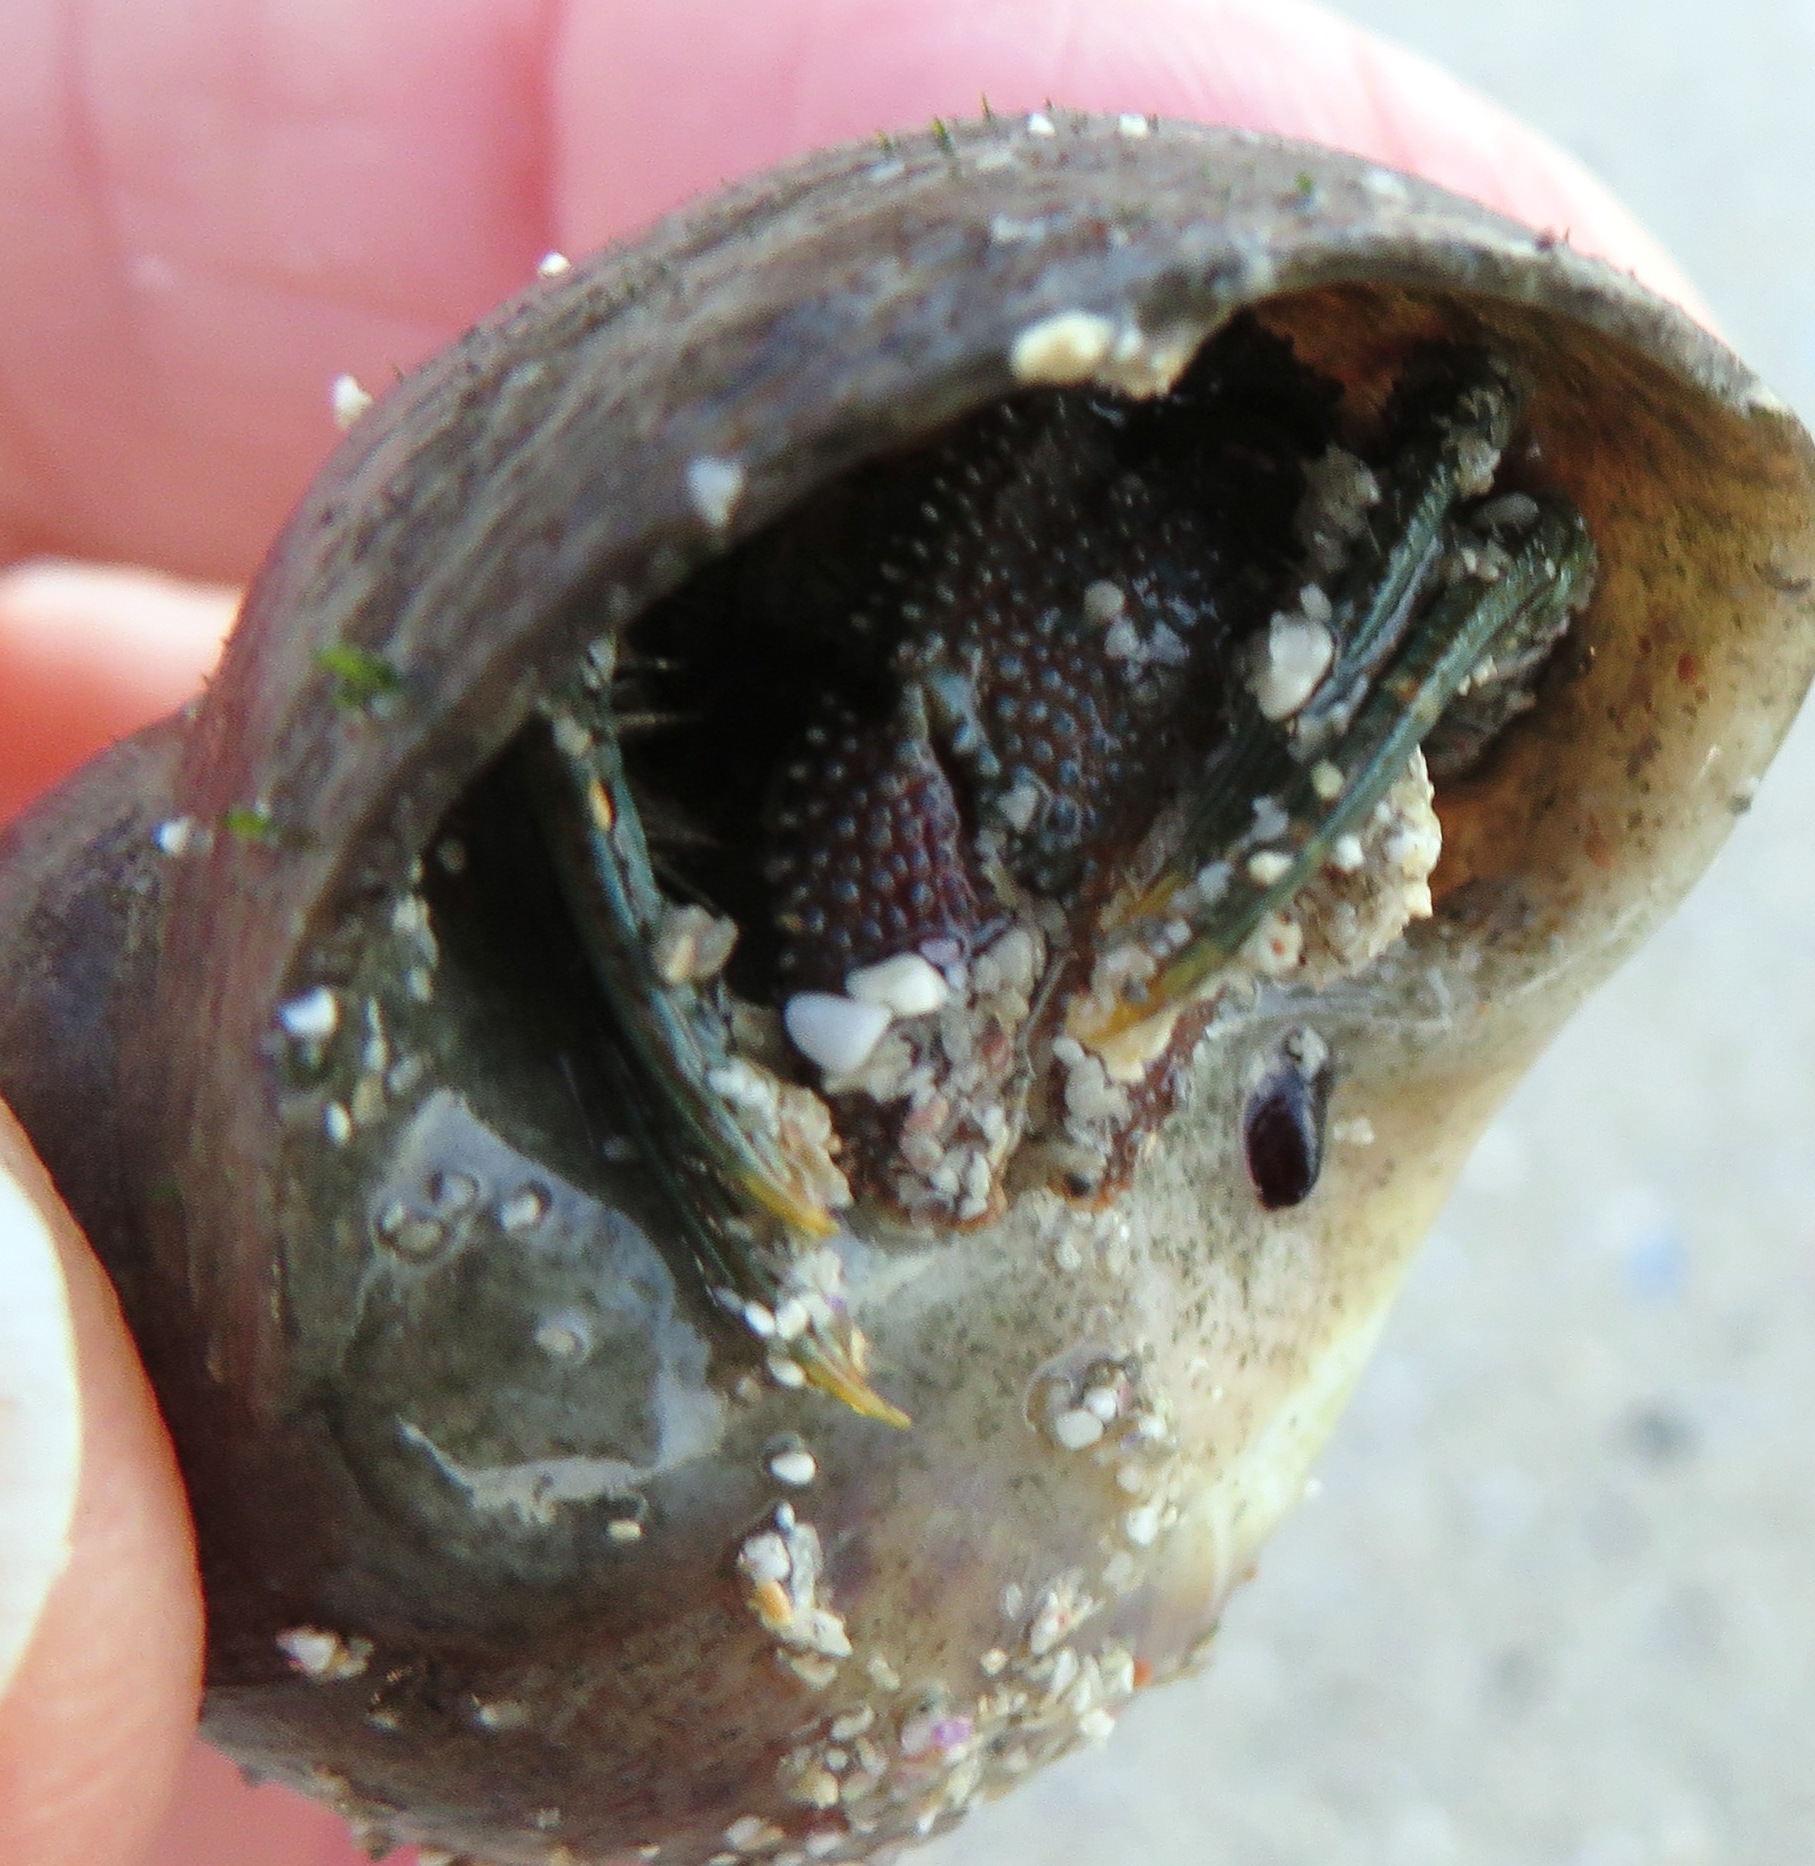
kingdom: Animalia
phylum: Arthropoda
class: Malacostraca
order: Decapoda
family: Diogenidae
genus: Diogenes
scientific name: Diogenes brevirostris
